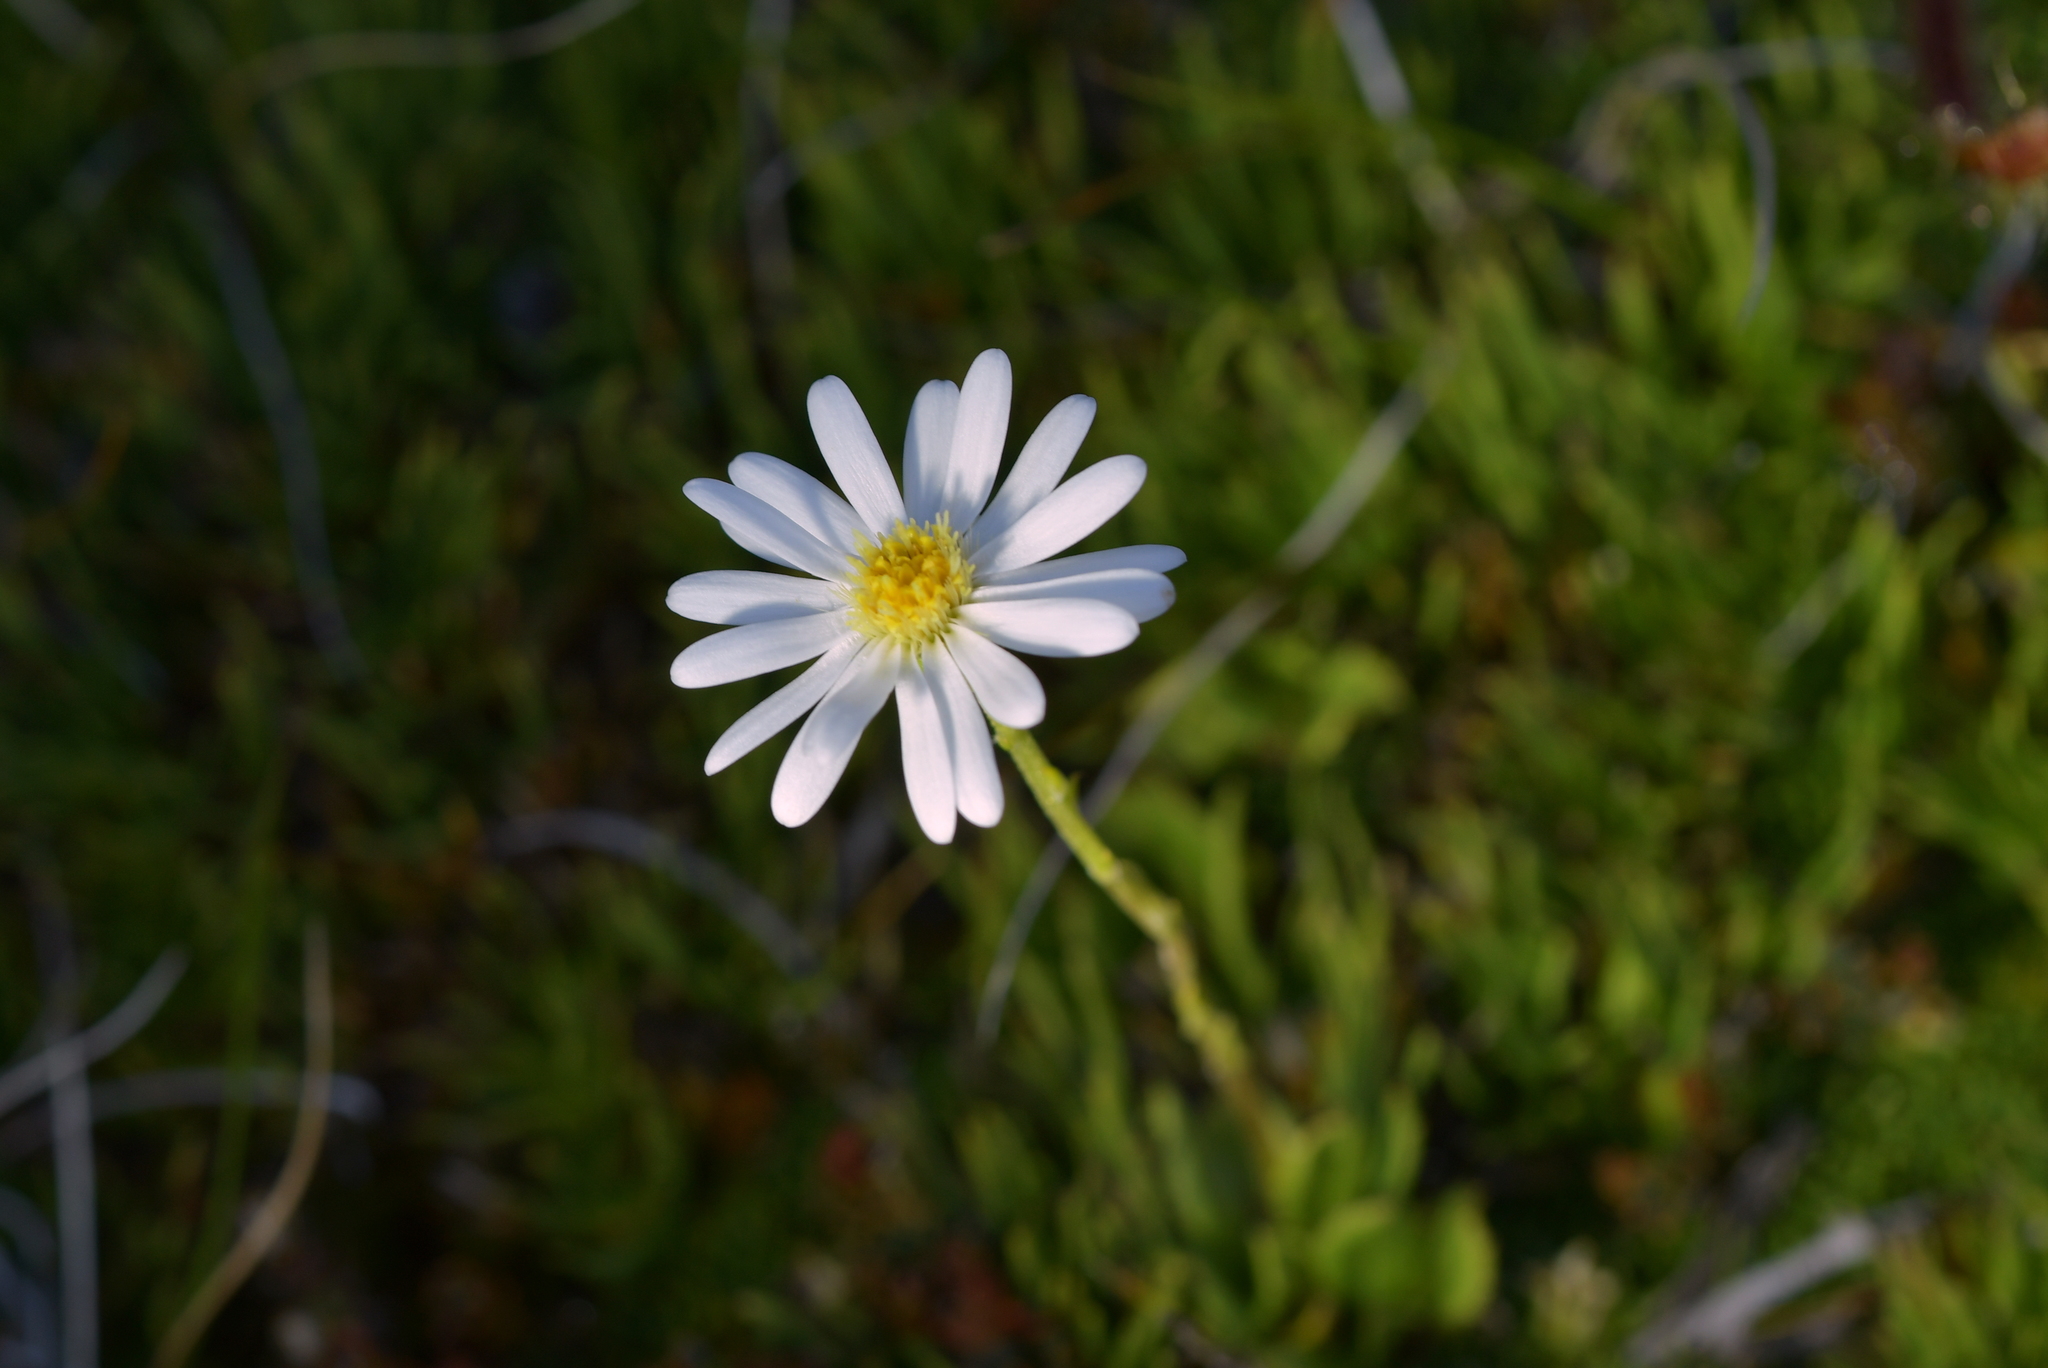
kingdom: Plantae
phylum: Tracheophyta
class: Magnoliopsida
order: Asterales
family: Asteraceae
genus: Celmisia
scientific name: Celmisia glandulosa
